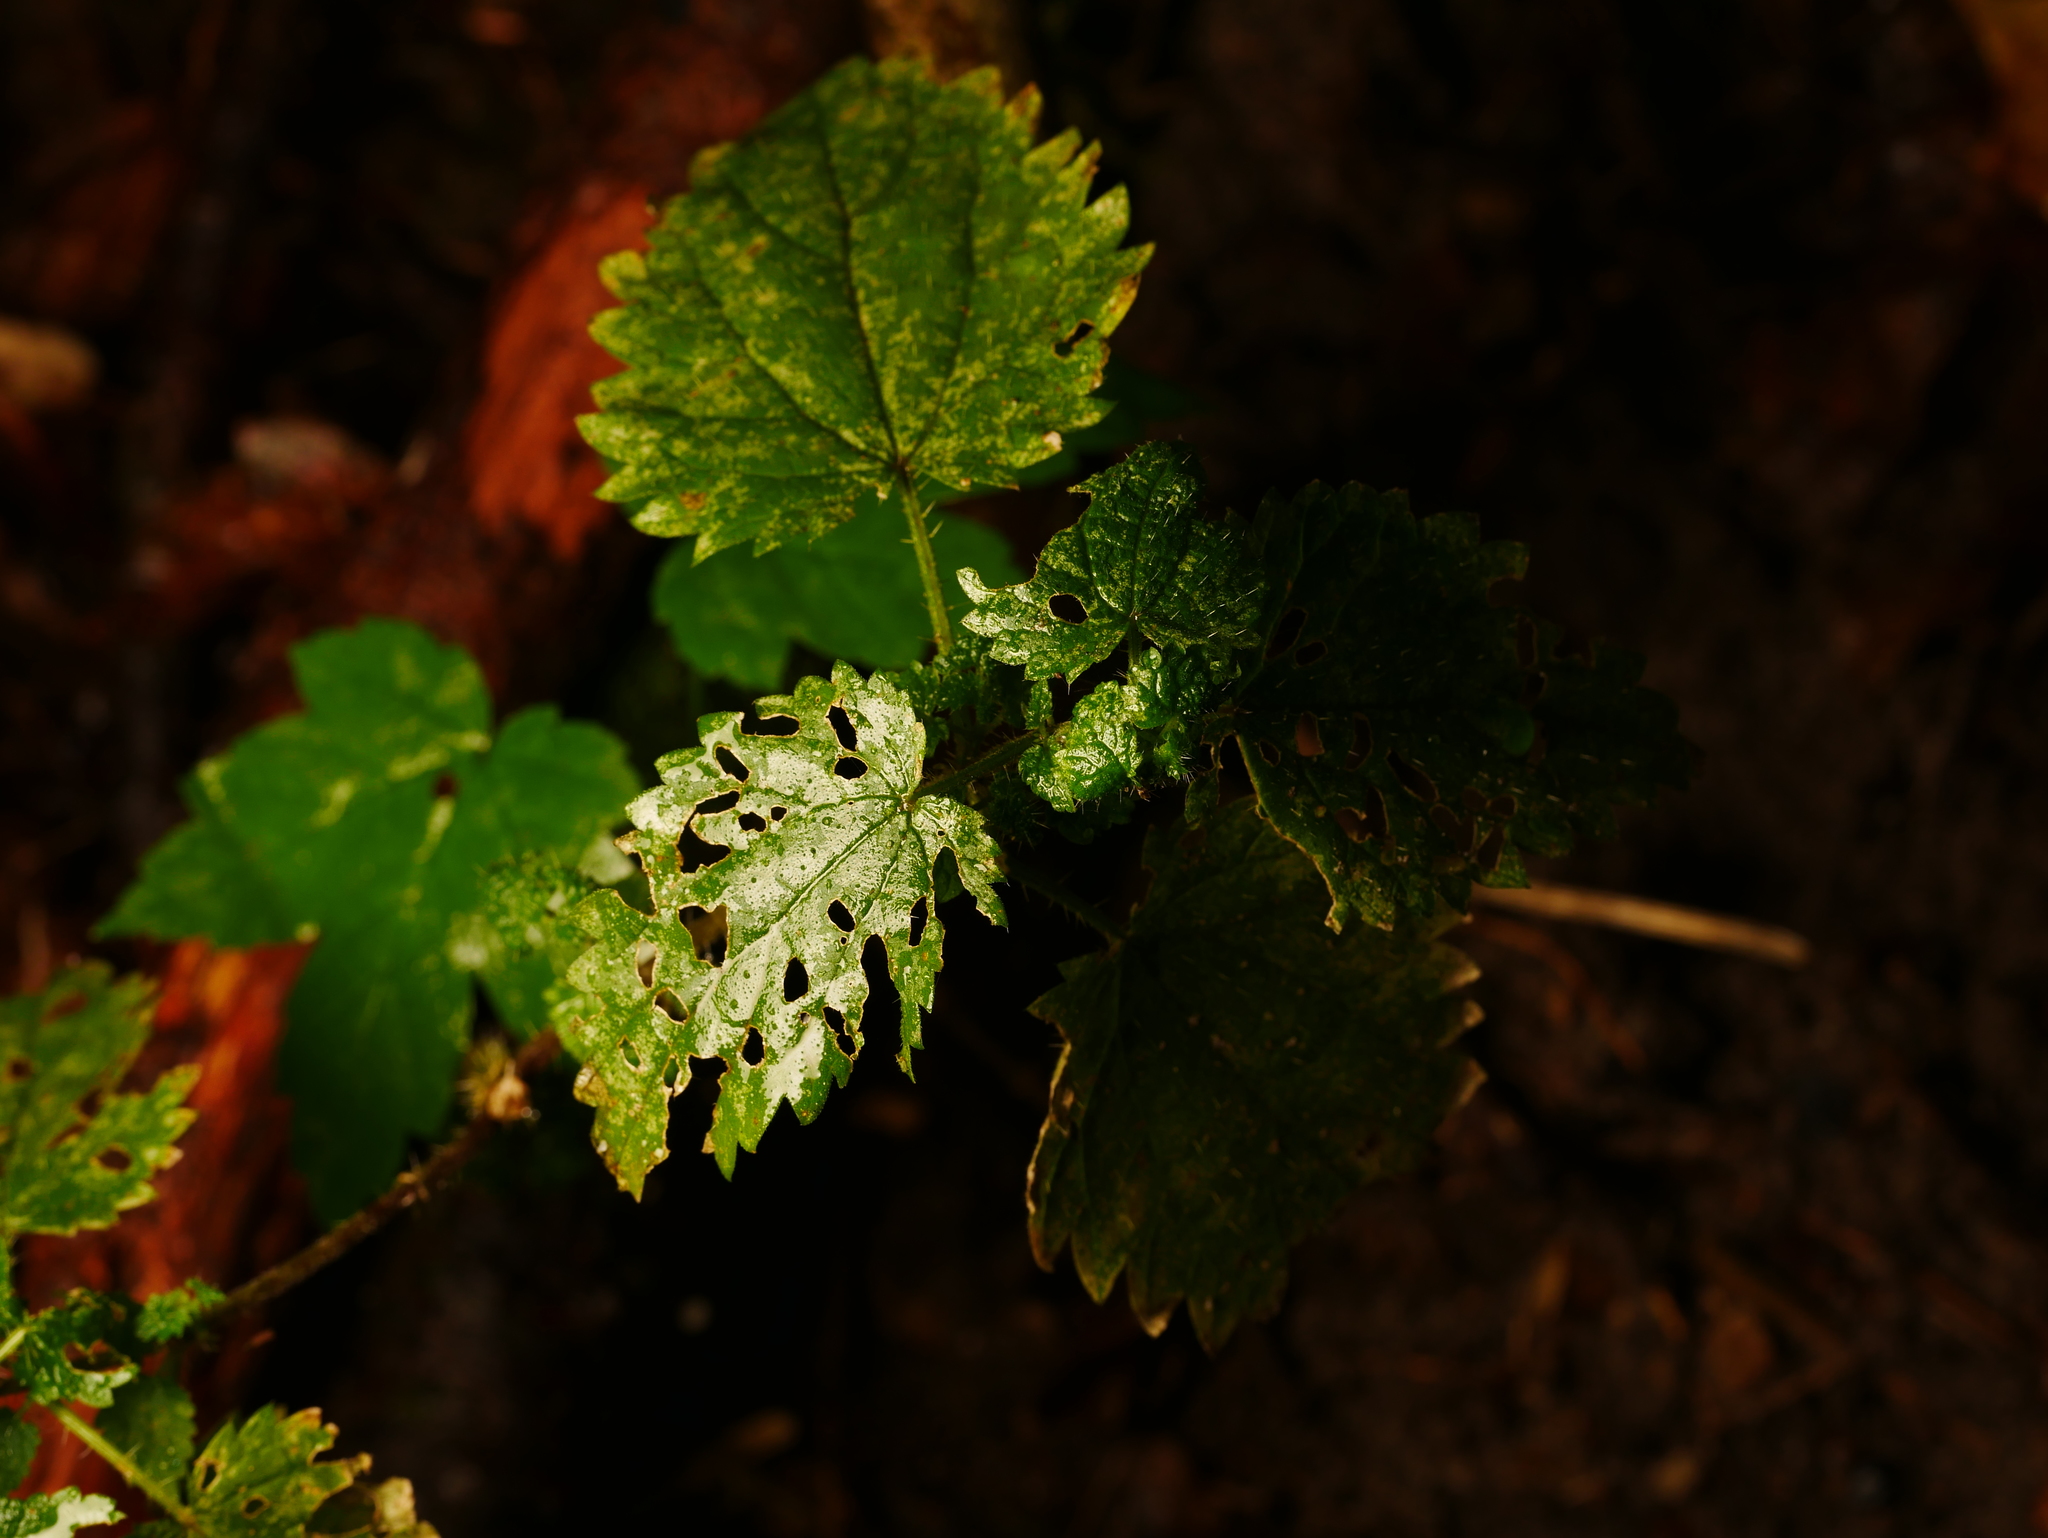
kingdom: Plantae
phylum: Tracheophyta
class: Magnoliopsida
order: Rosales
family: Urticaceae
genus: Urtica
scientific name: Urtica dioica
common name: Common nettle
